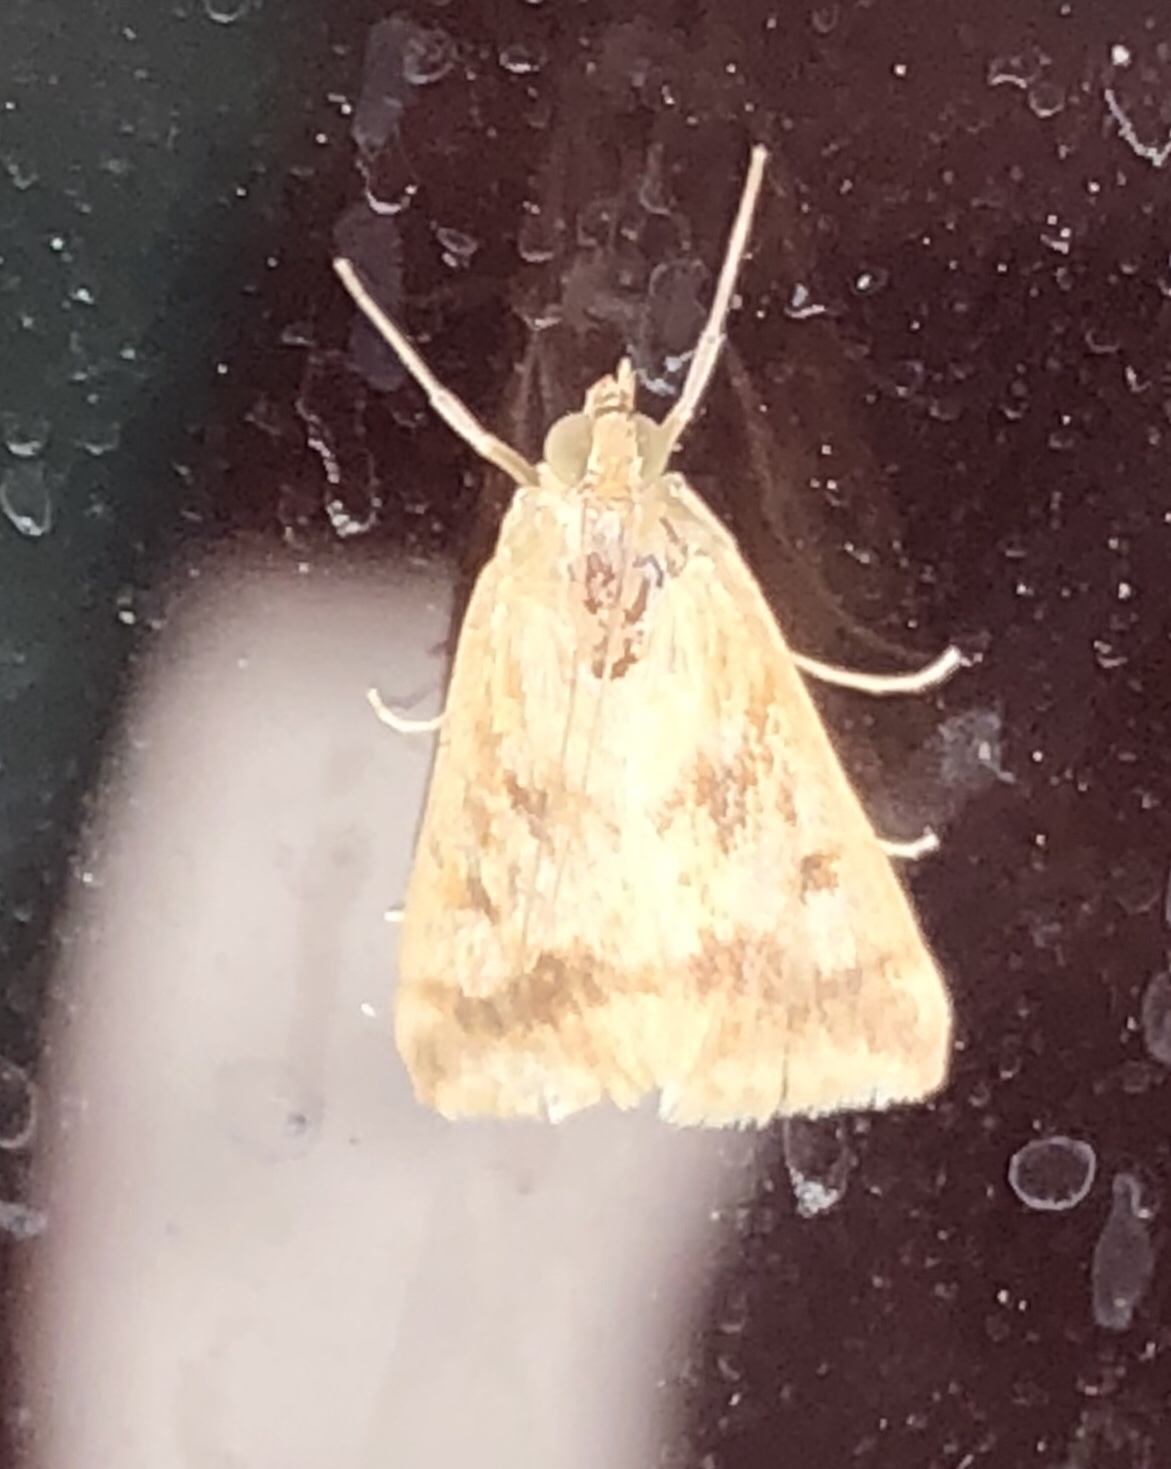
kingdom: Animalia
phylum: Arthropoda
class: Insecta
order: Lepidoptera
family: Crambidae
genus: Achyra
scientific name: Achyra bifidalis
